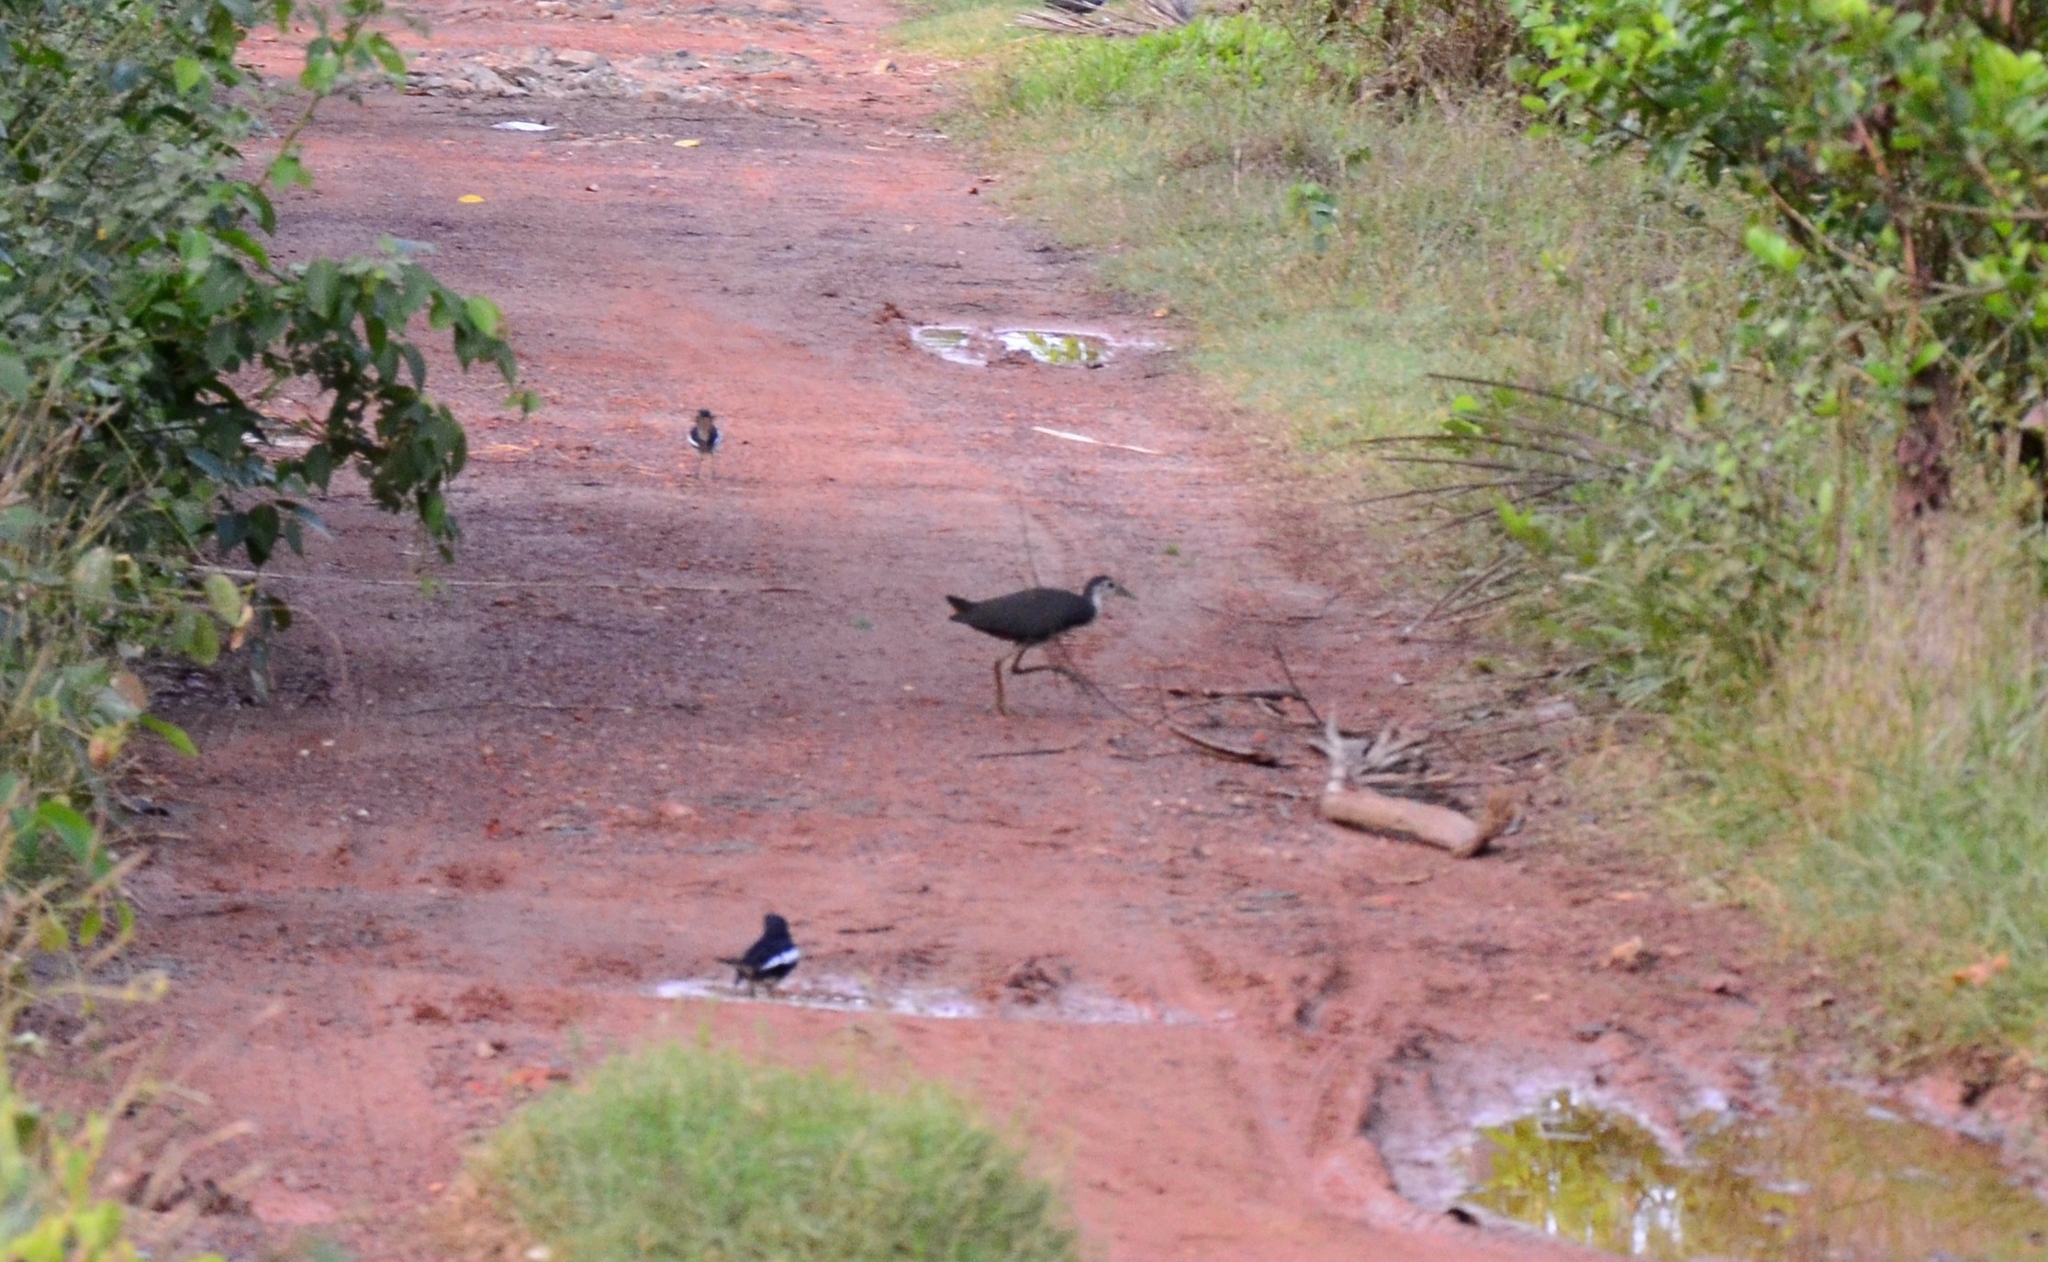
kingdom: Animalia
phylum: Chordata
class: Aves
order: Gruiformes
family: Rallidae
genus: Amaurornis
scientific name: Amaurornis phoenicurus
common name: White-breasted waterhen
